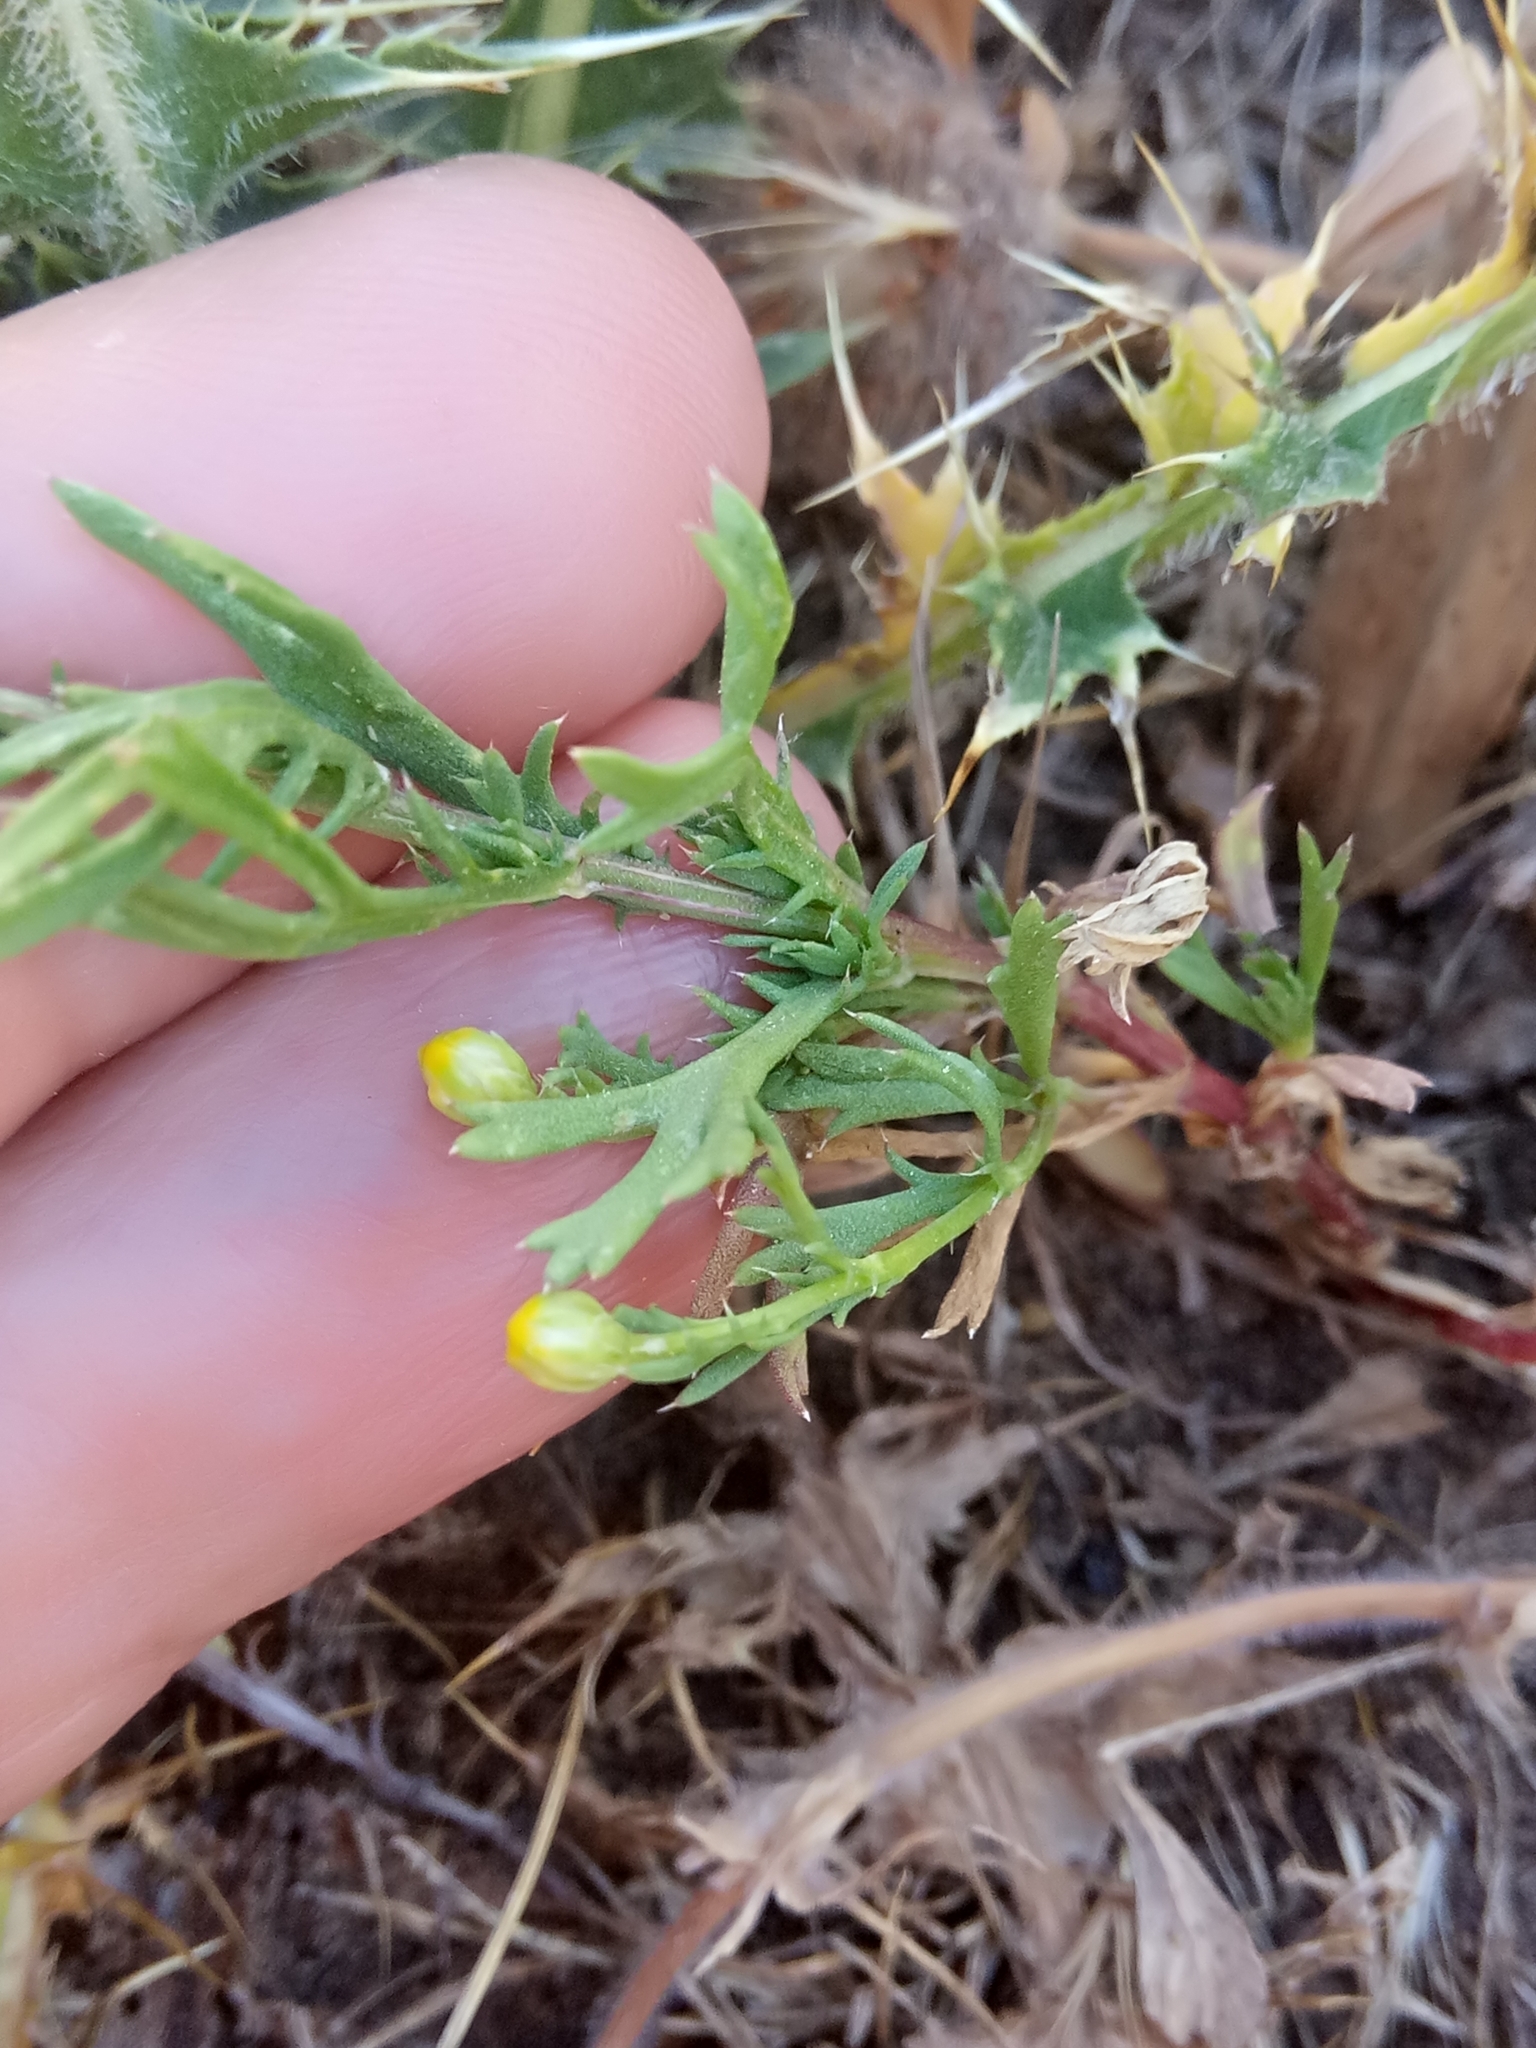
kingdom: Plantae
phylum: Tracheophyta
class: Magnoliopsida
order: Asterales
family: Asteraceae
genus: Lonas
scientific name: Lonas annua
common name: African daisy
